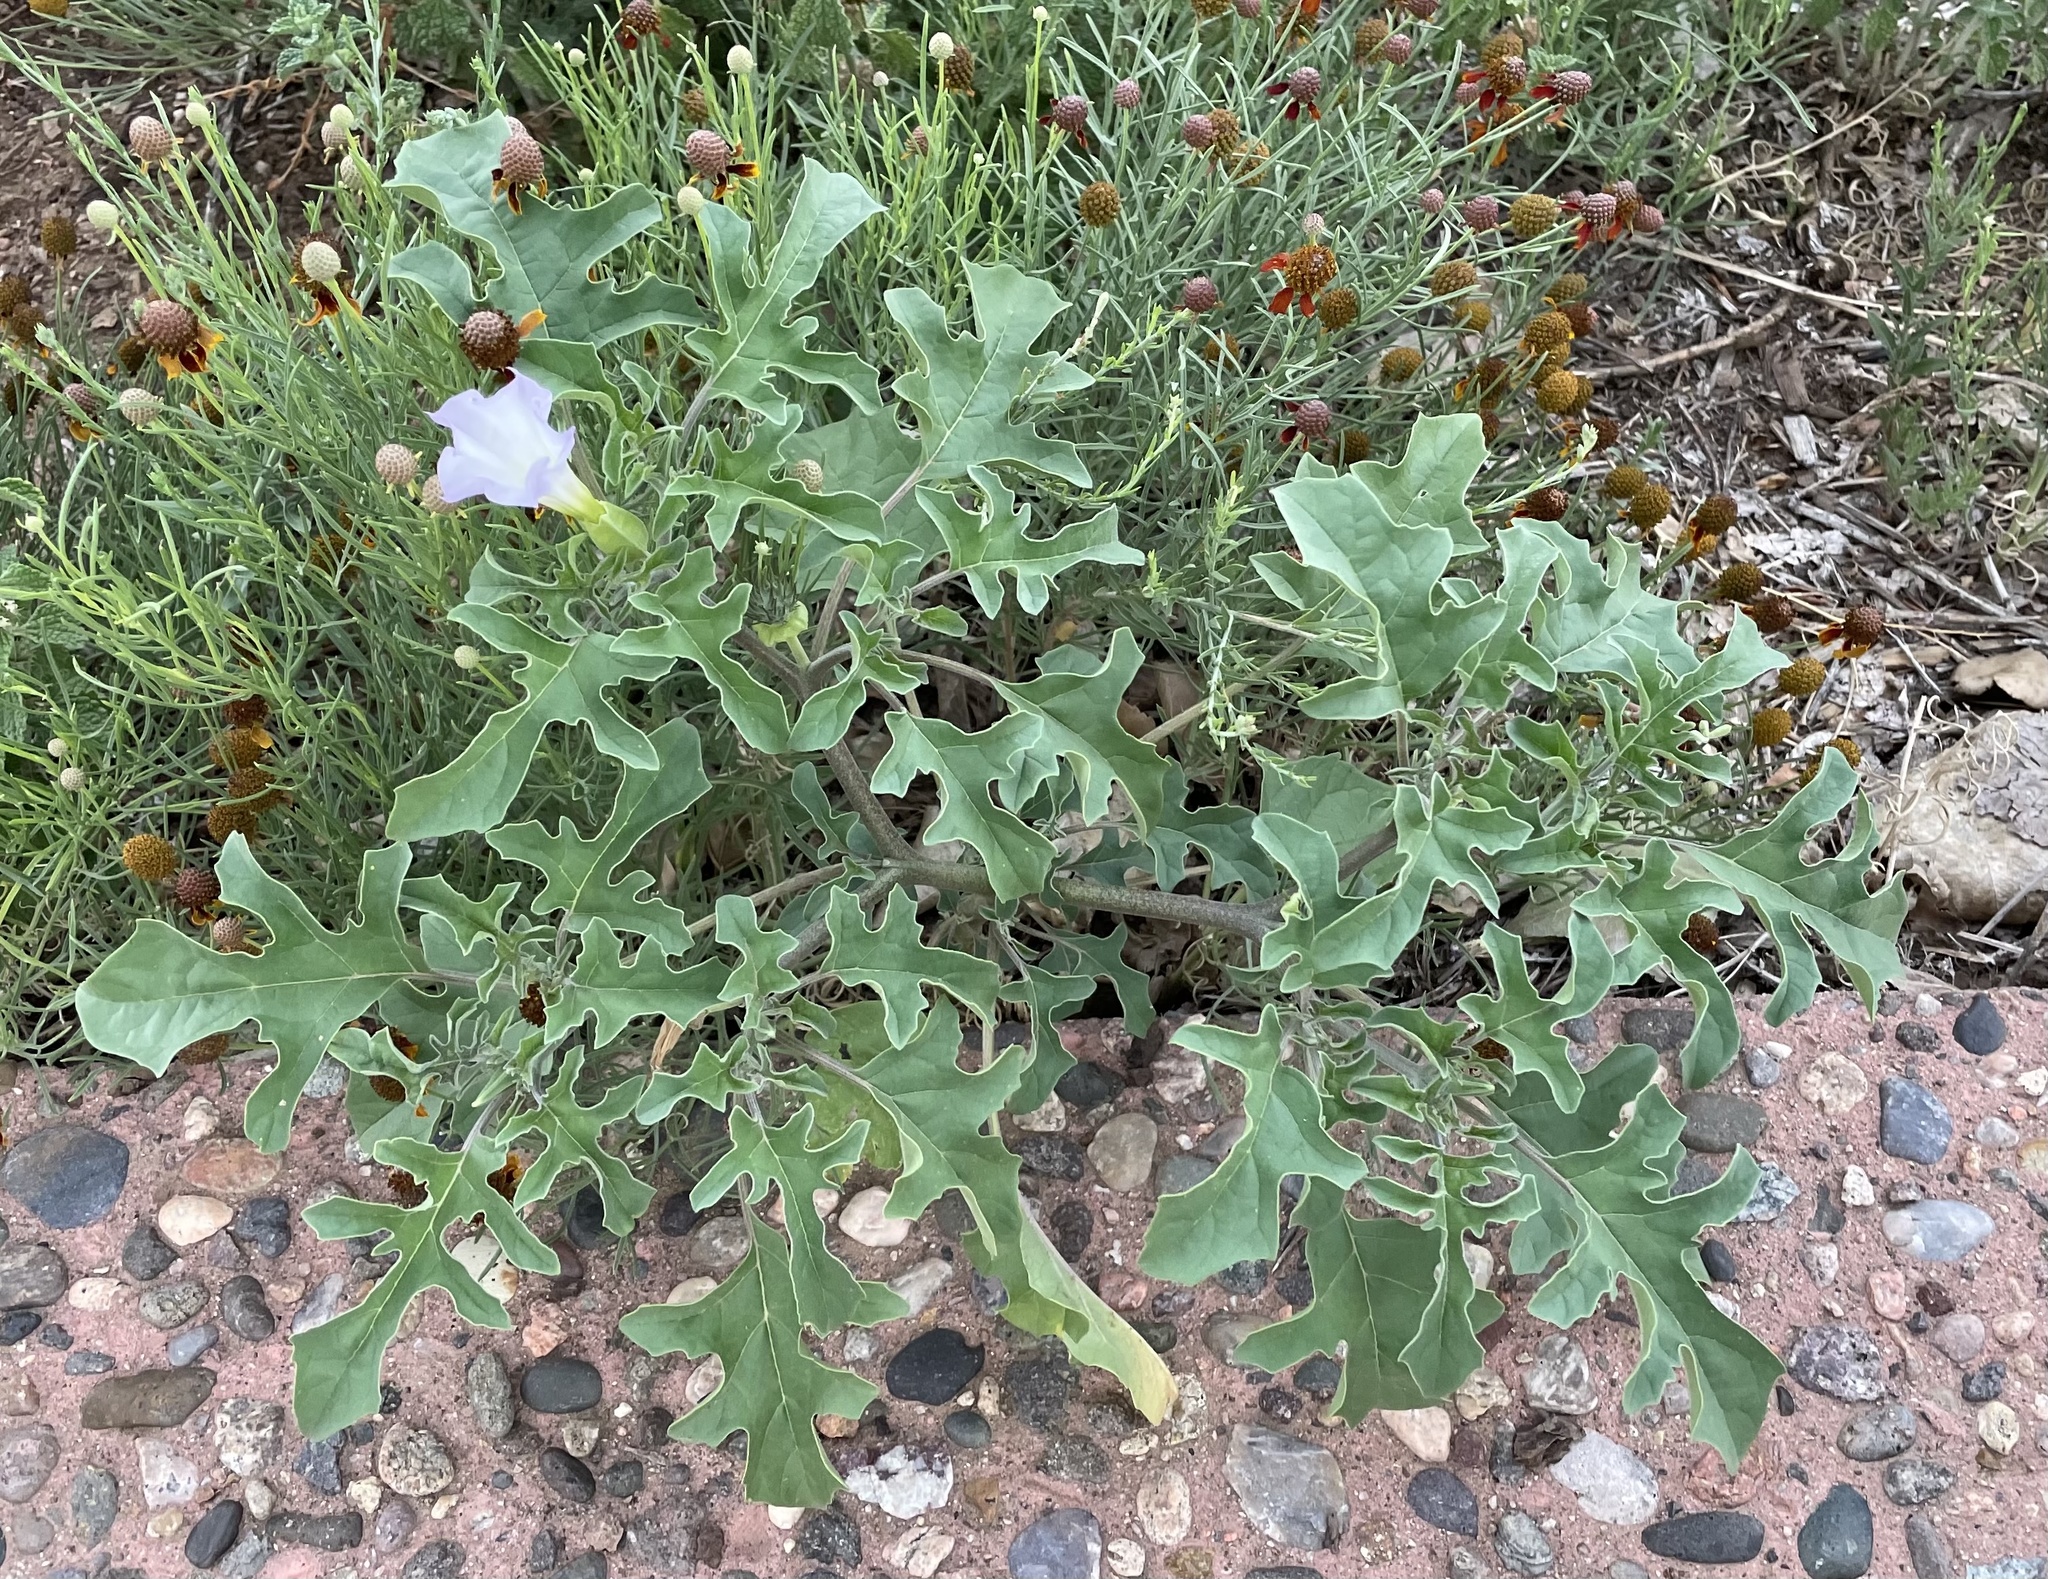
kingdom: Plantae
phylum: Tracheophyta
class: Magnoliopsida
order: Solanales
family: Solanaceae
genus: Datura
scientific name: Datura quercifolia
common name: Oak-leaf datura
